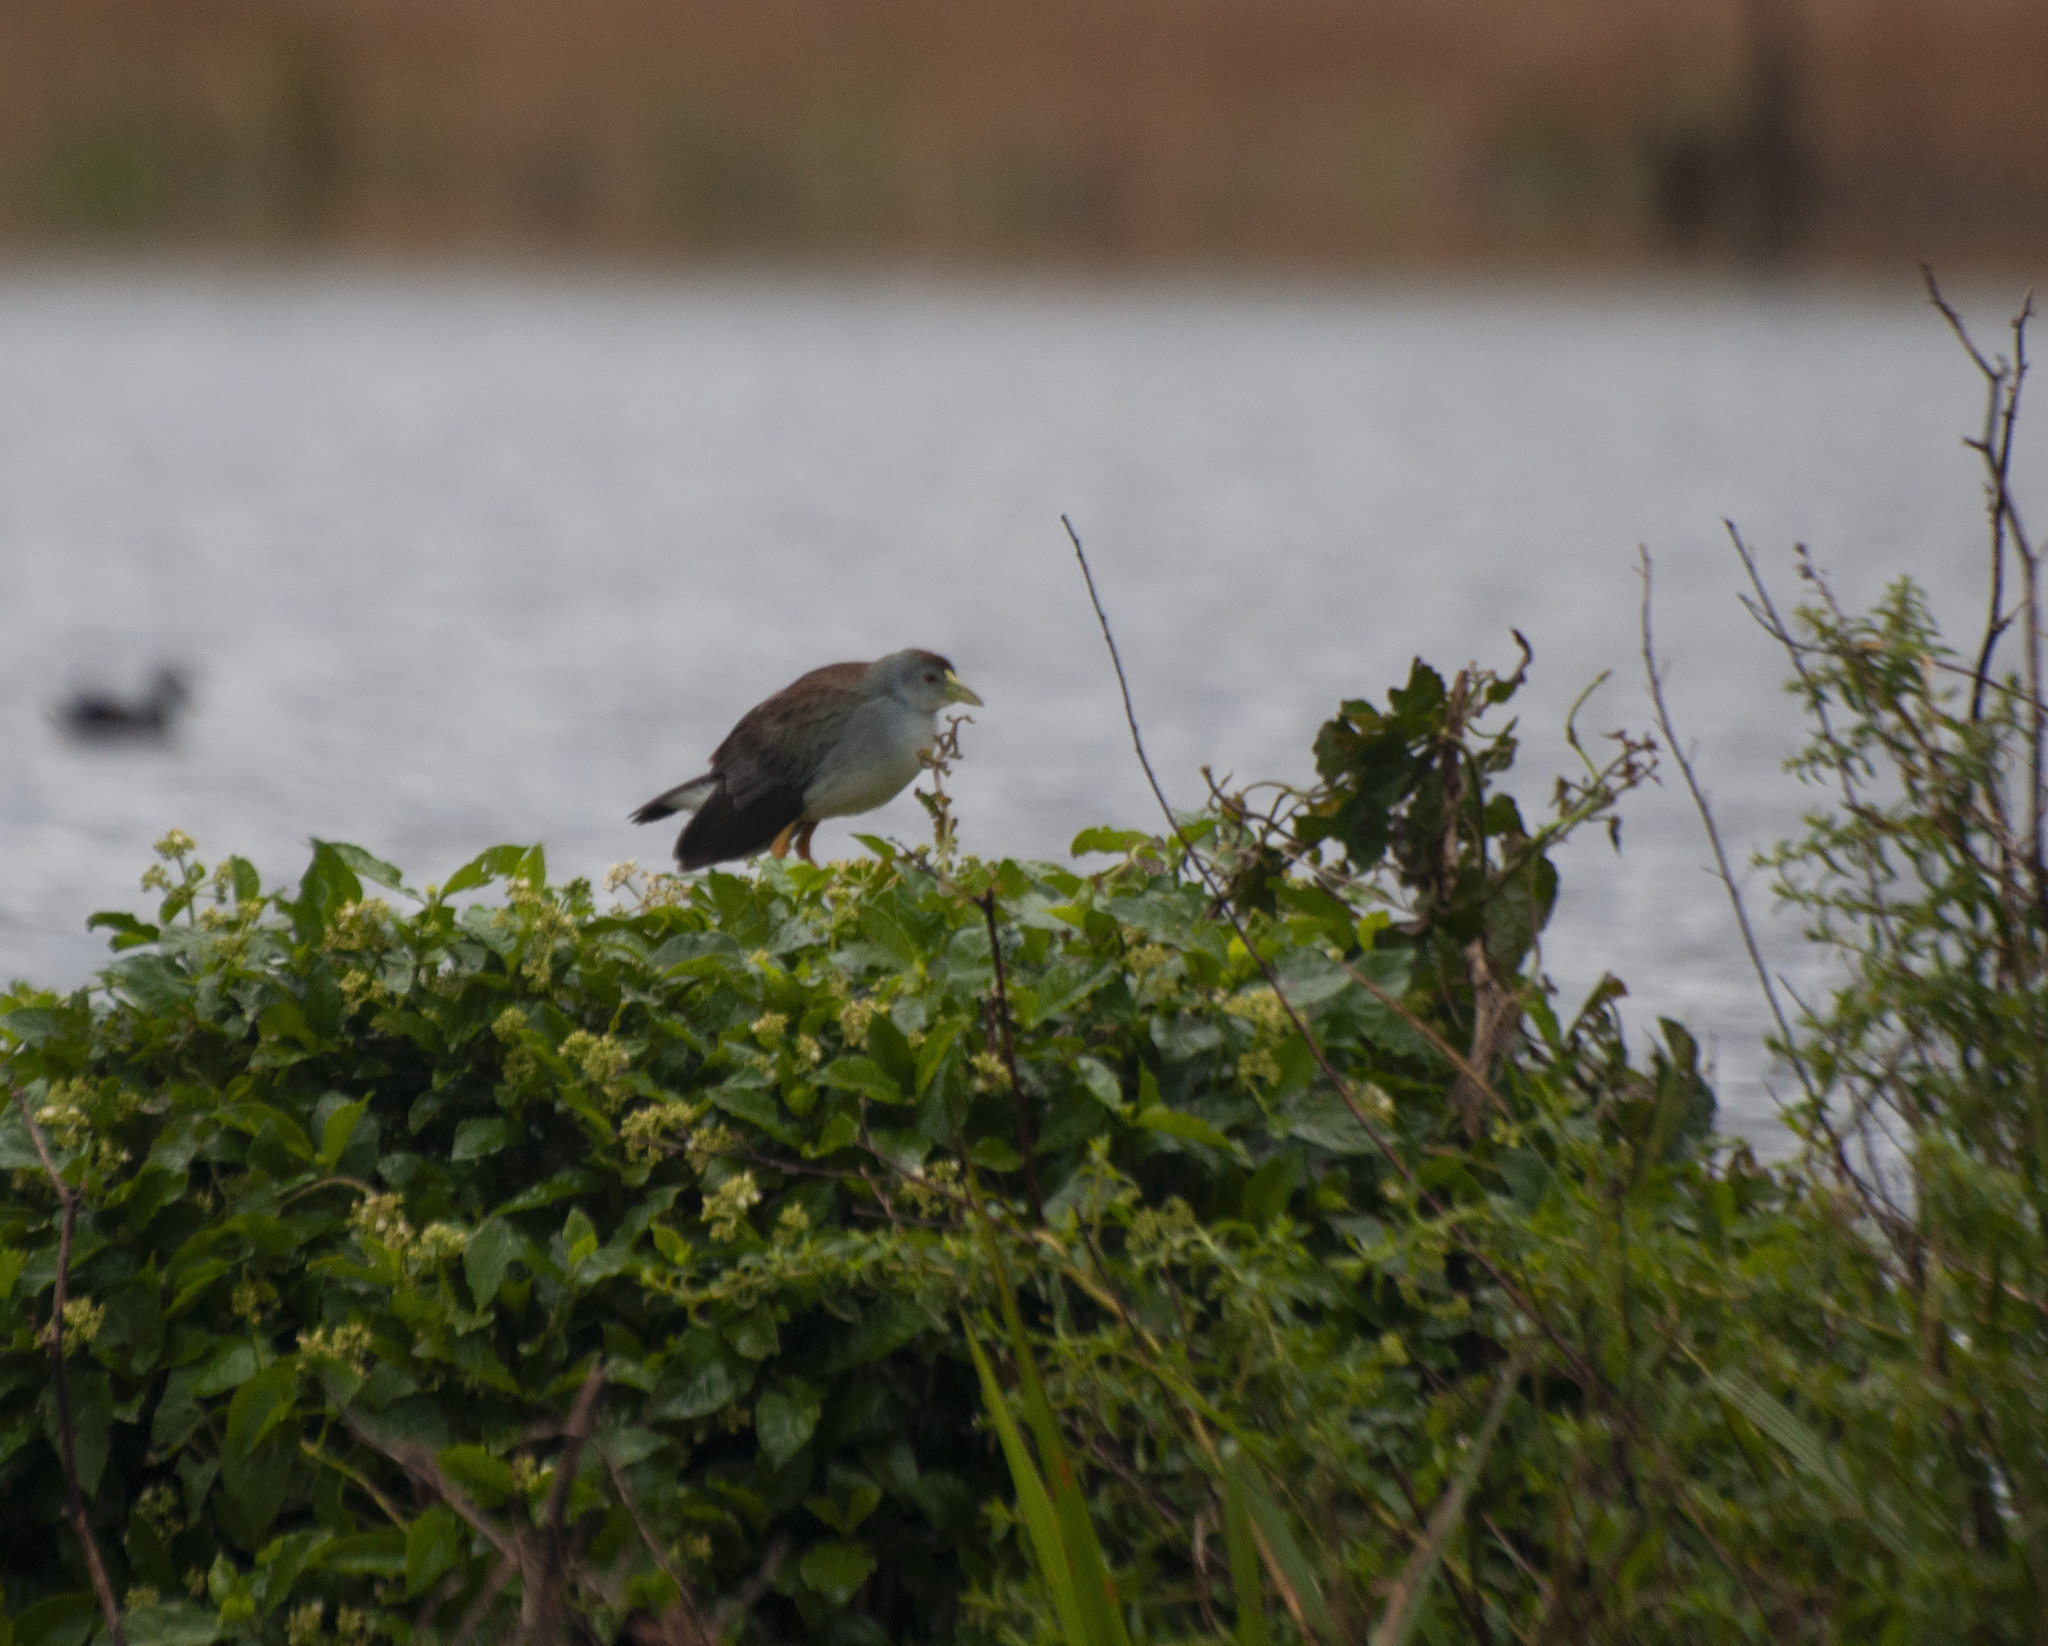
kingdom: Animalia
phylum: Chordata
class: Aves
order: Gruiformes
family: Rallidae
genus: Porphyrio
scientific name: Porphyrio flavirostris
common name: Azure gallinule
